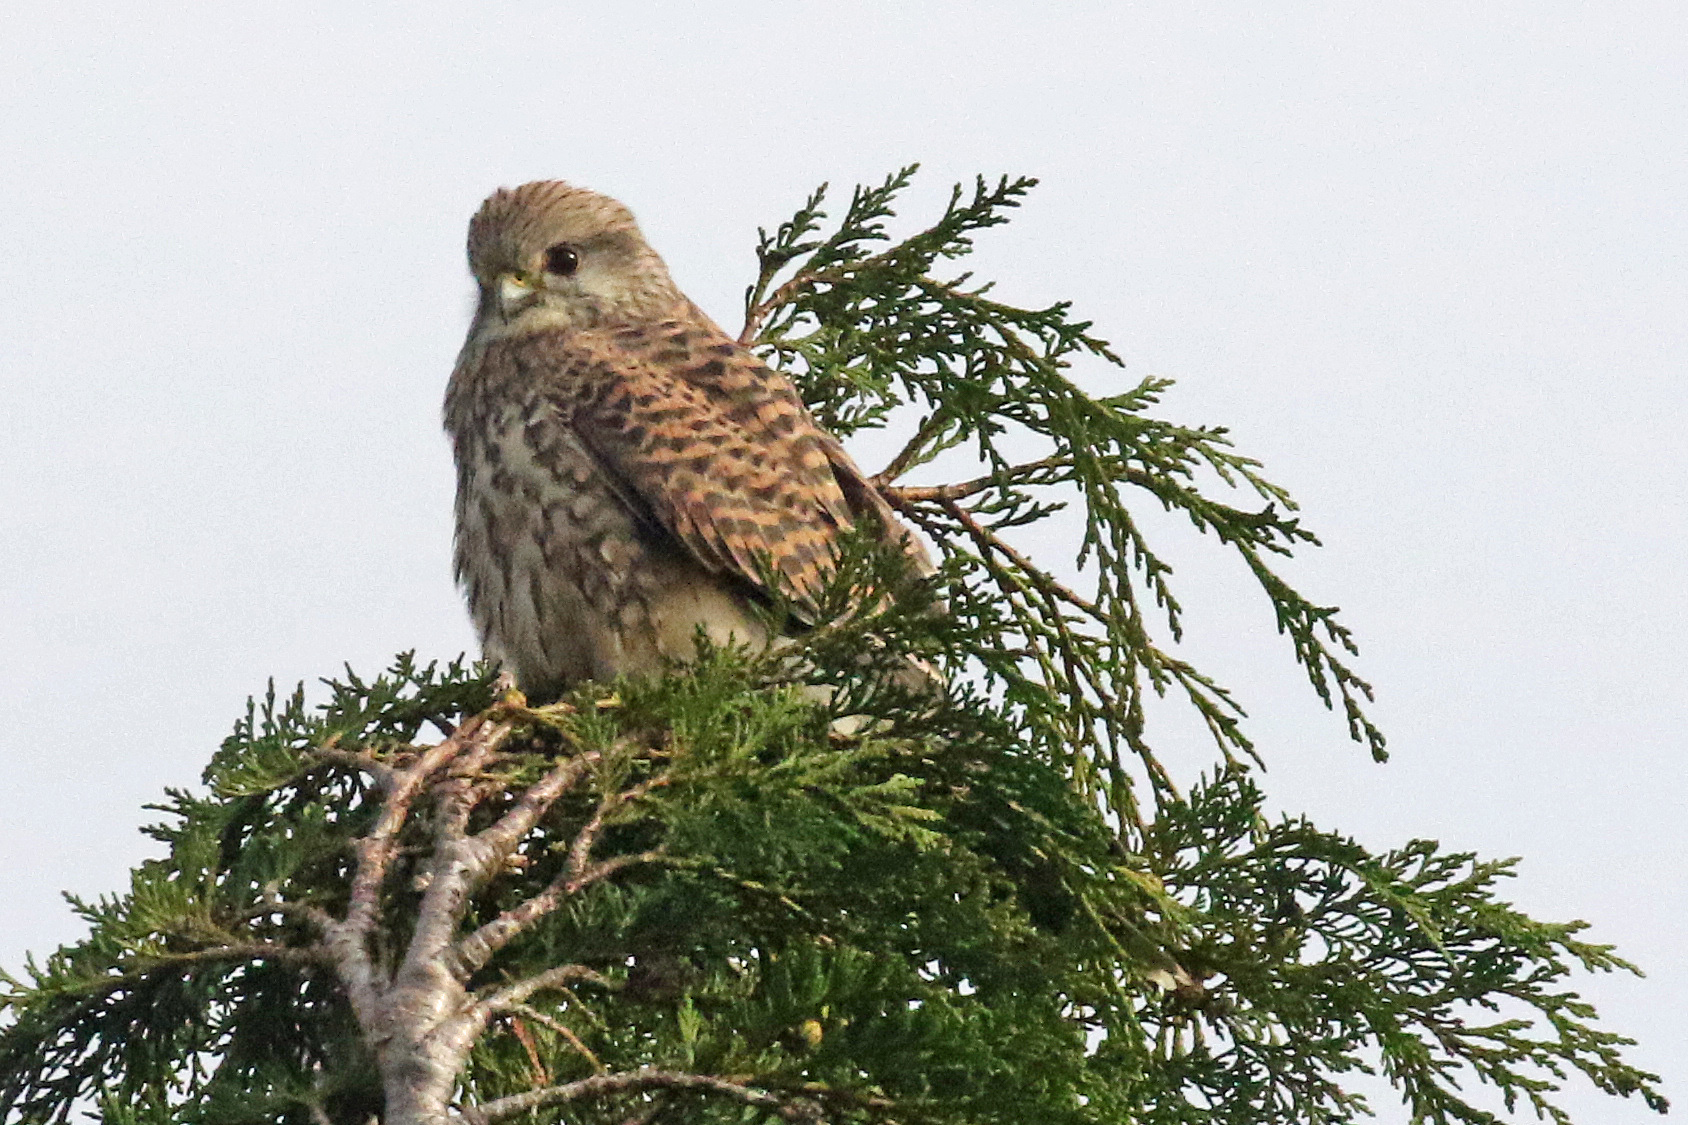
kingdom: Animalia
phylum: Chordata
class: Aves
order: Falconiformes
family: Falconidae
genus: Falco
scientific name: Falco tinnunculus
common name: Common kestrel
